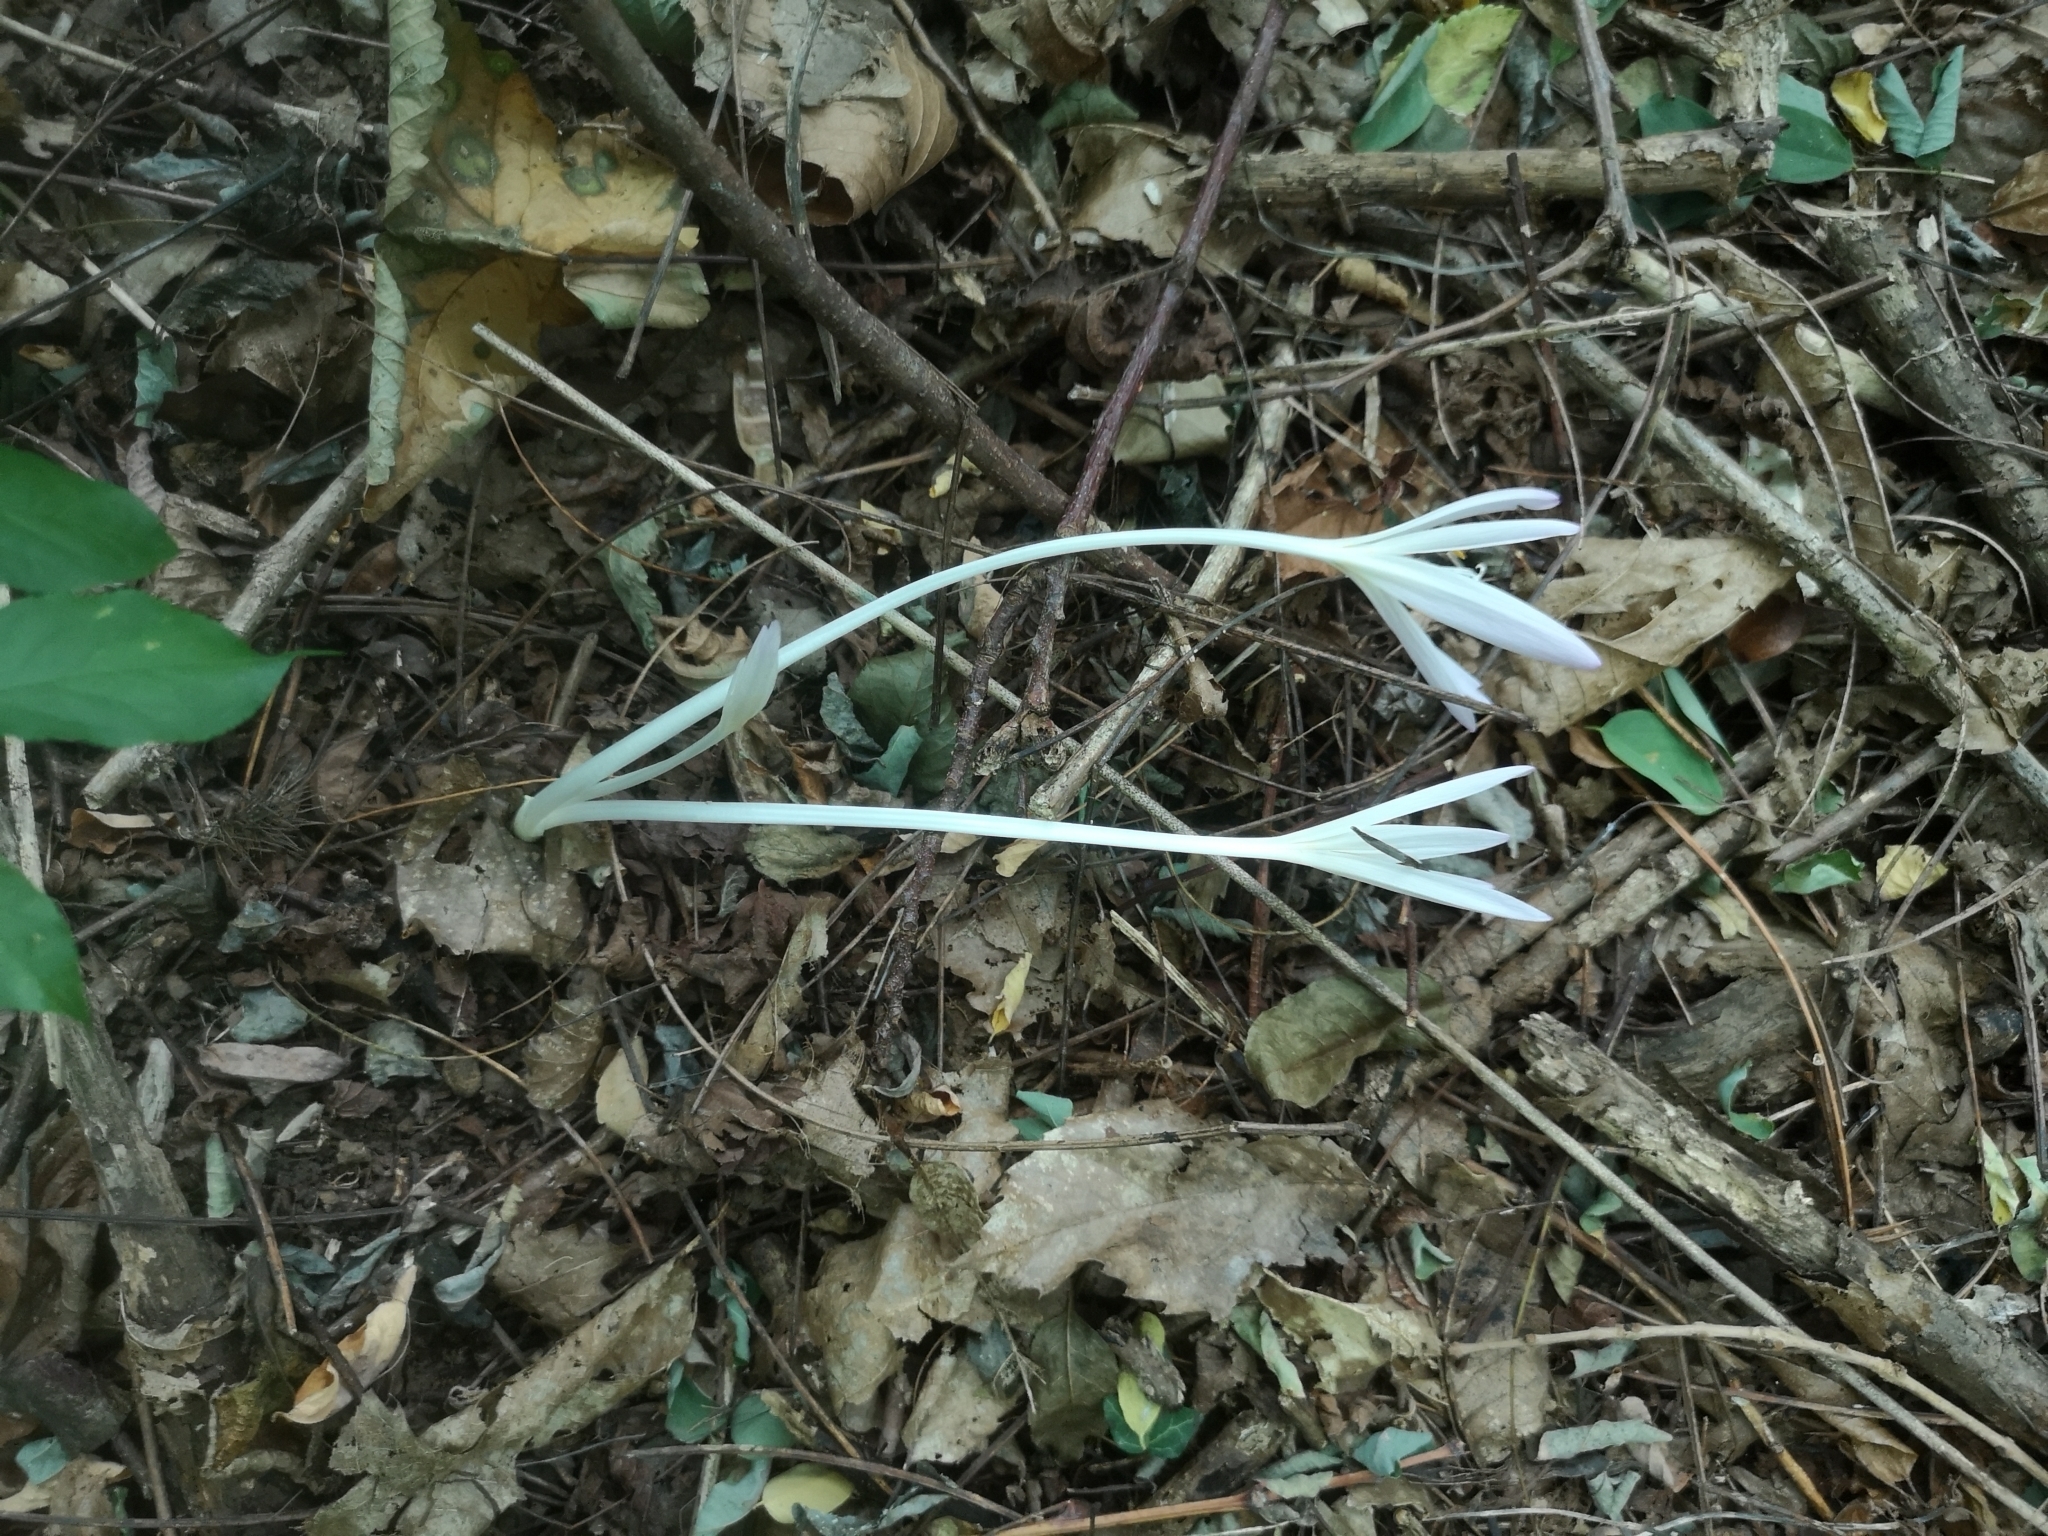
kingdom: Plantae
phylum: Tracheophyta
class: Liliopsida
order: Liliales
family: Colchicaceae
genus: Colchicum
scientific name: Colchicum autumnale
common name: Autumn crocus
